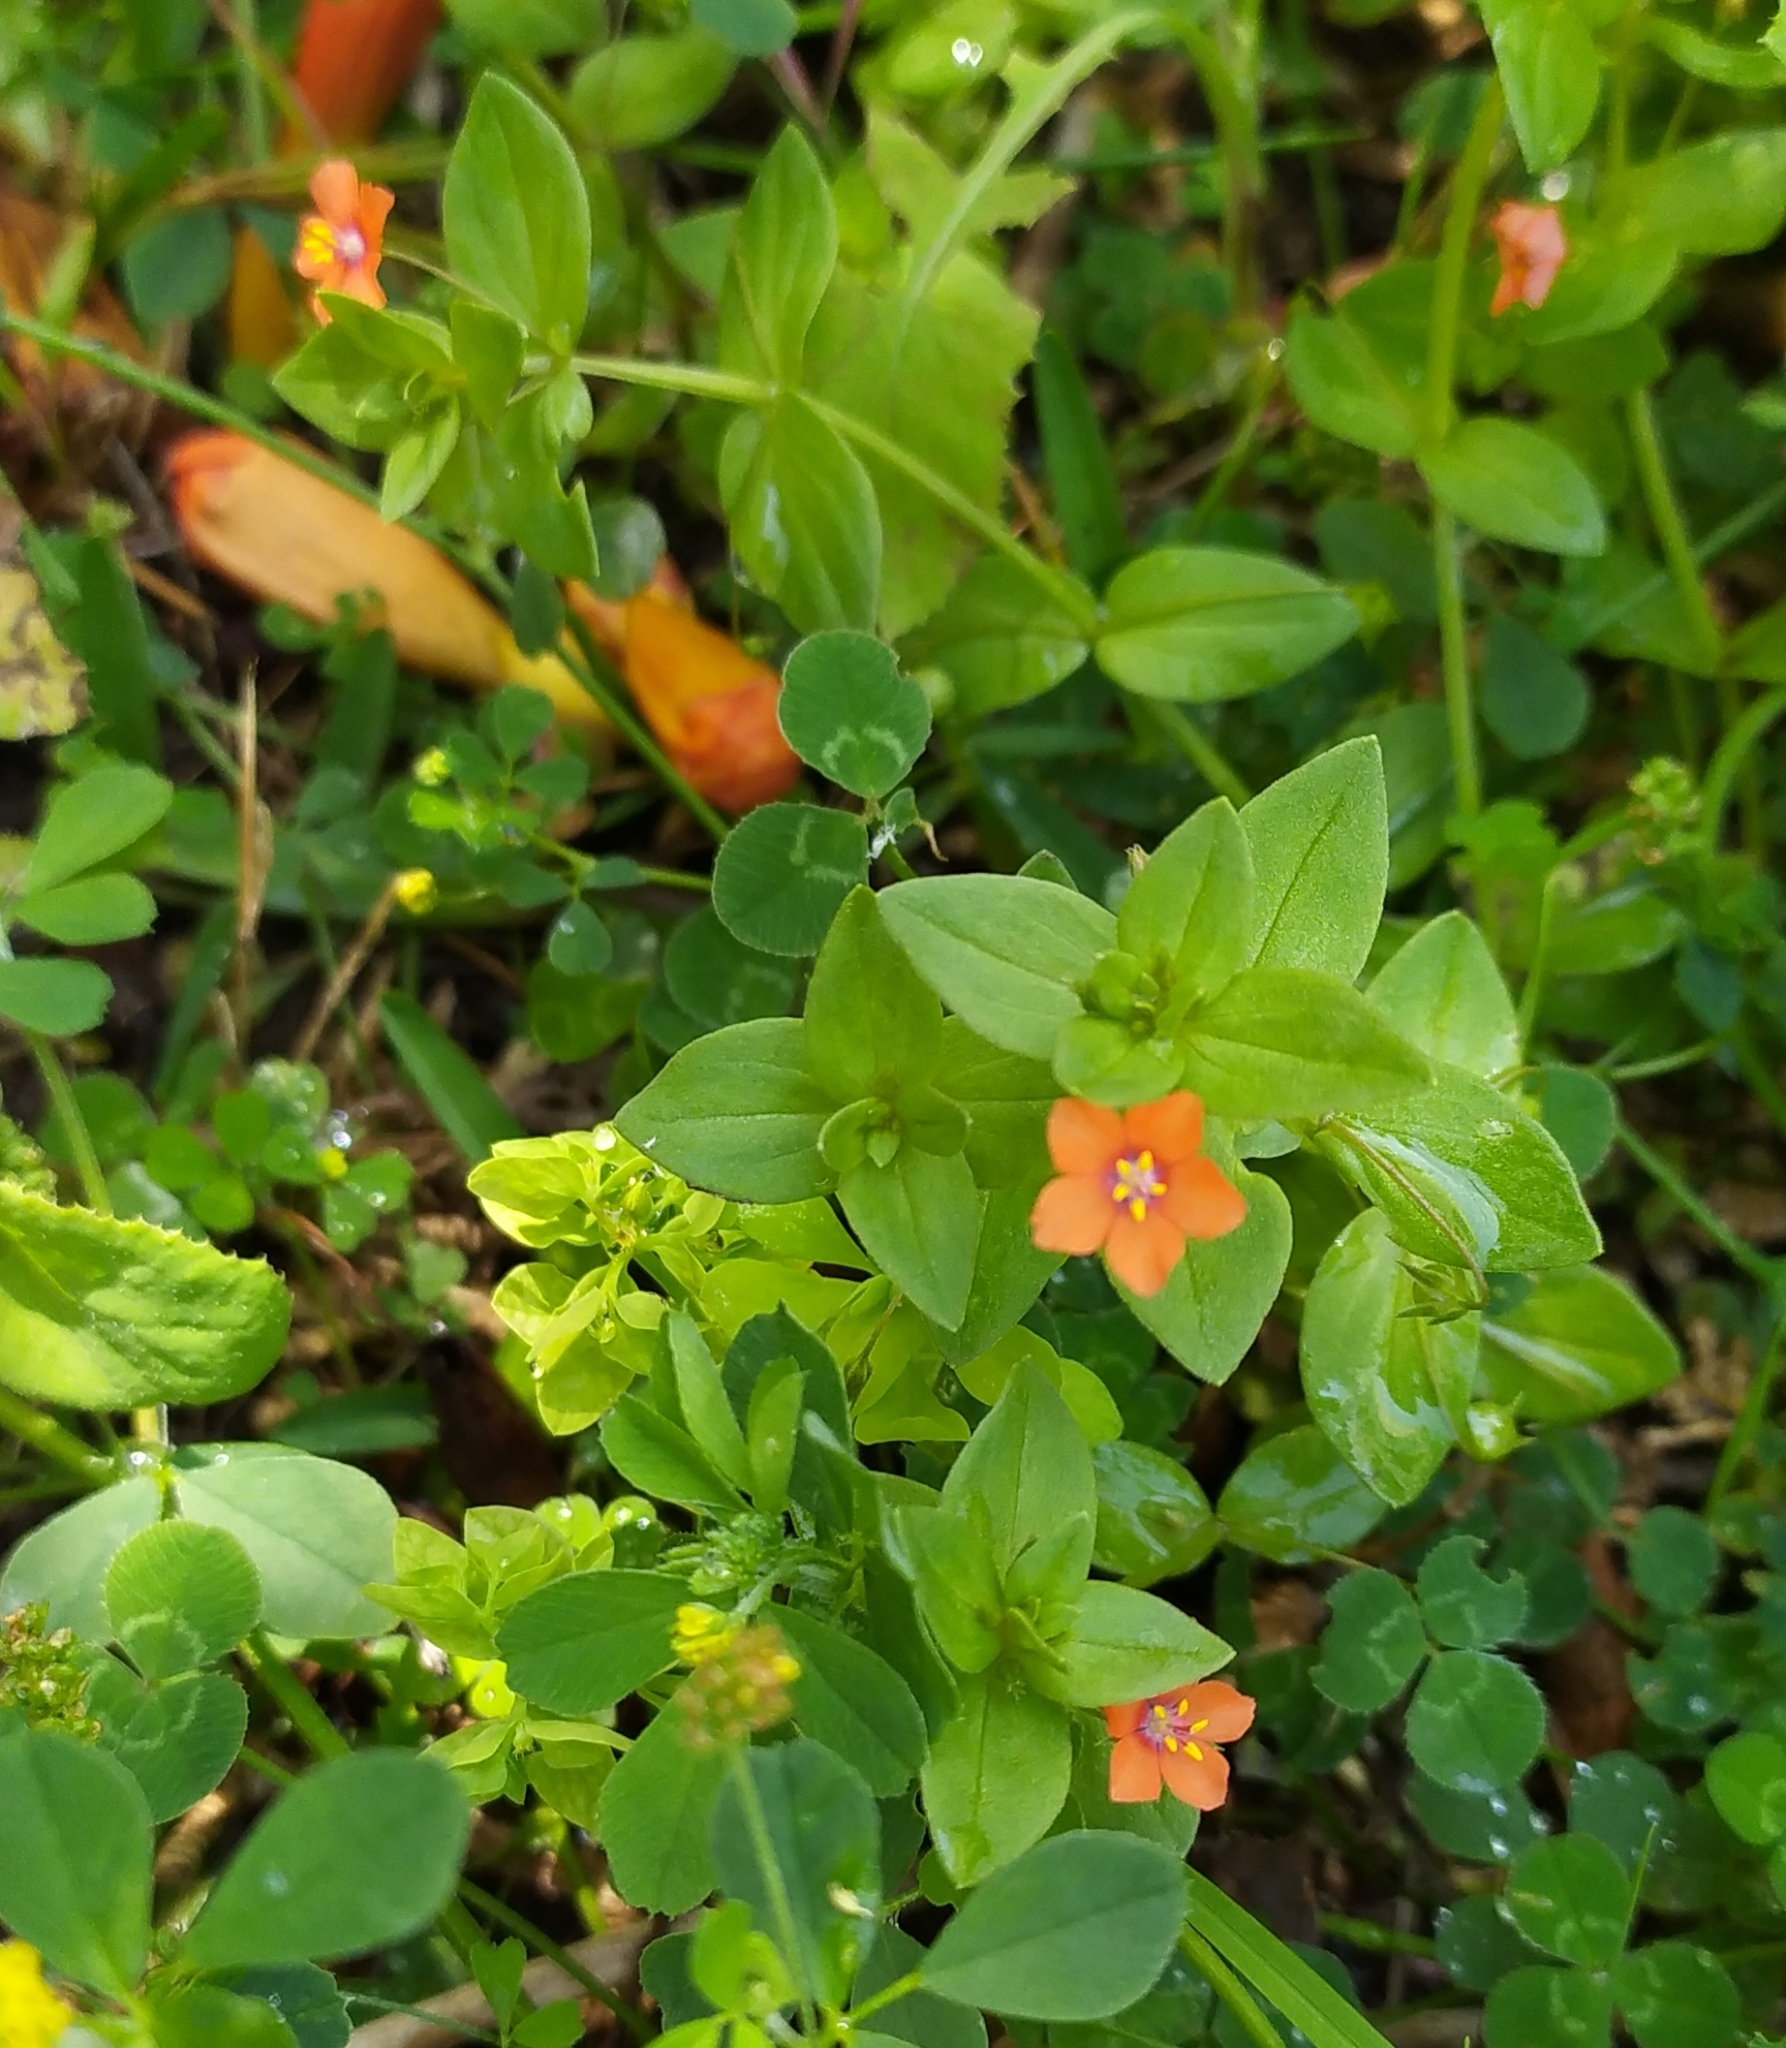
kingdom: Plantae
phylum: Tracheophyta
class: Magnoliopsida
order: Ericales
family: Primulaceae
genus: Lysimachia
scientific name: Lysimachia arvensis
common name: Scarlet pimpernel
